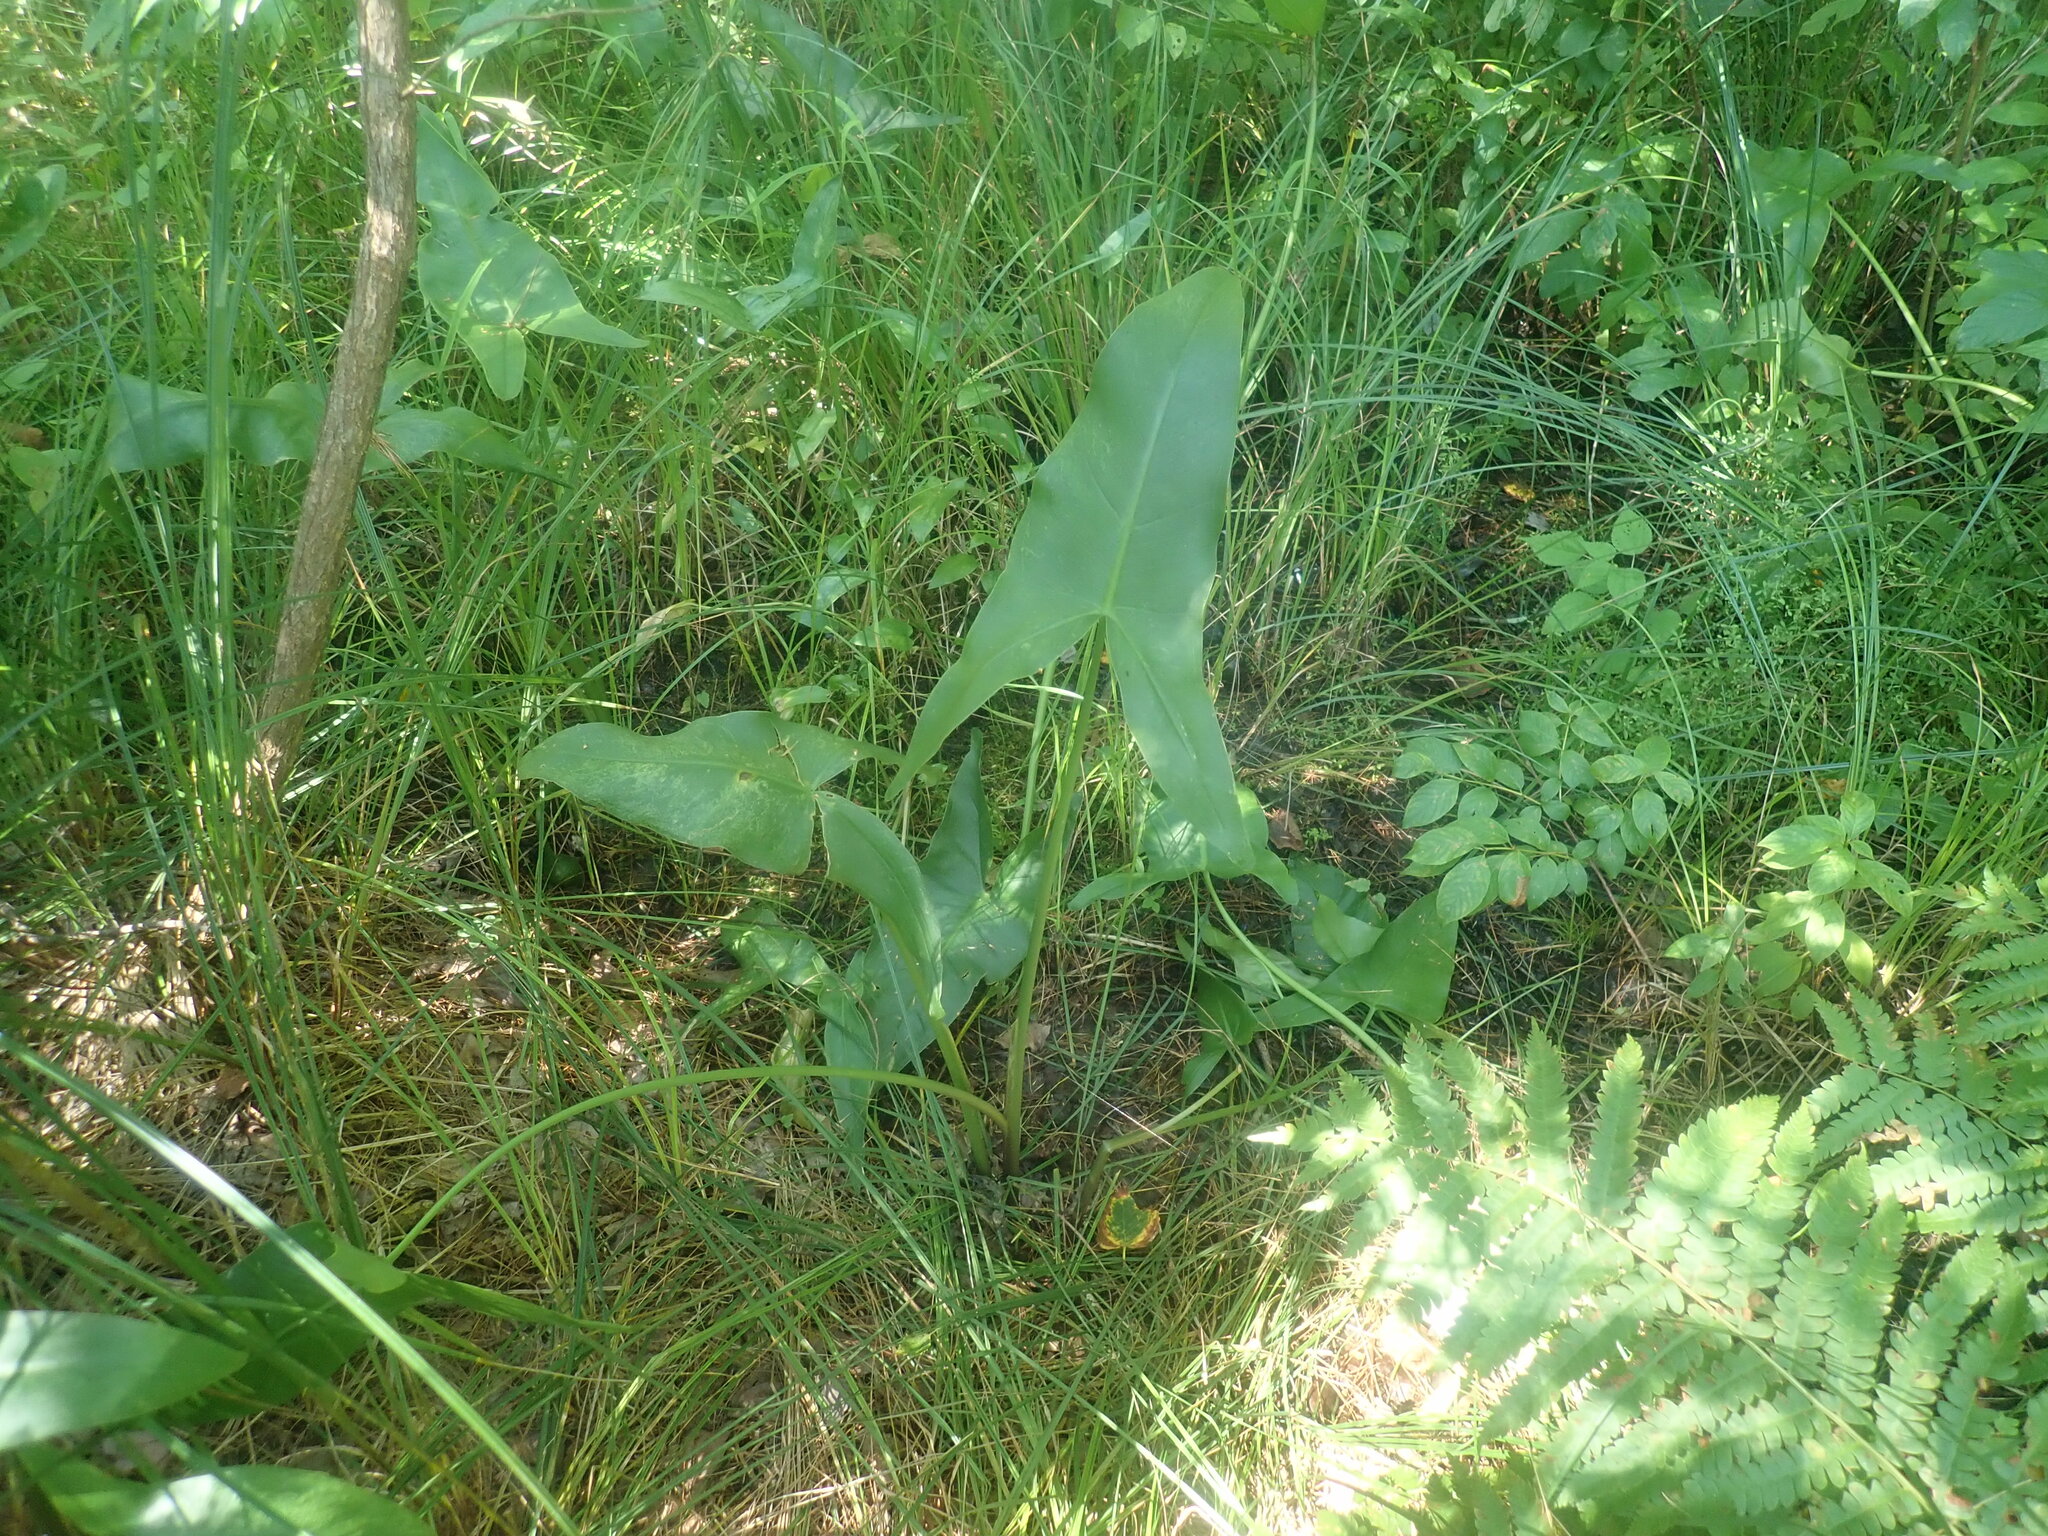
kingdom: Plantae
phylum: Tracheophyta
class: Liliopsida
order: Alismatales
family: Araceae
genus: Peltandra
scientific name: Peltandra virginica
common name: Arrow arum
